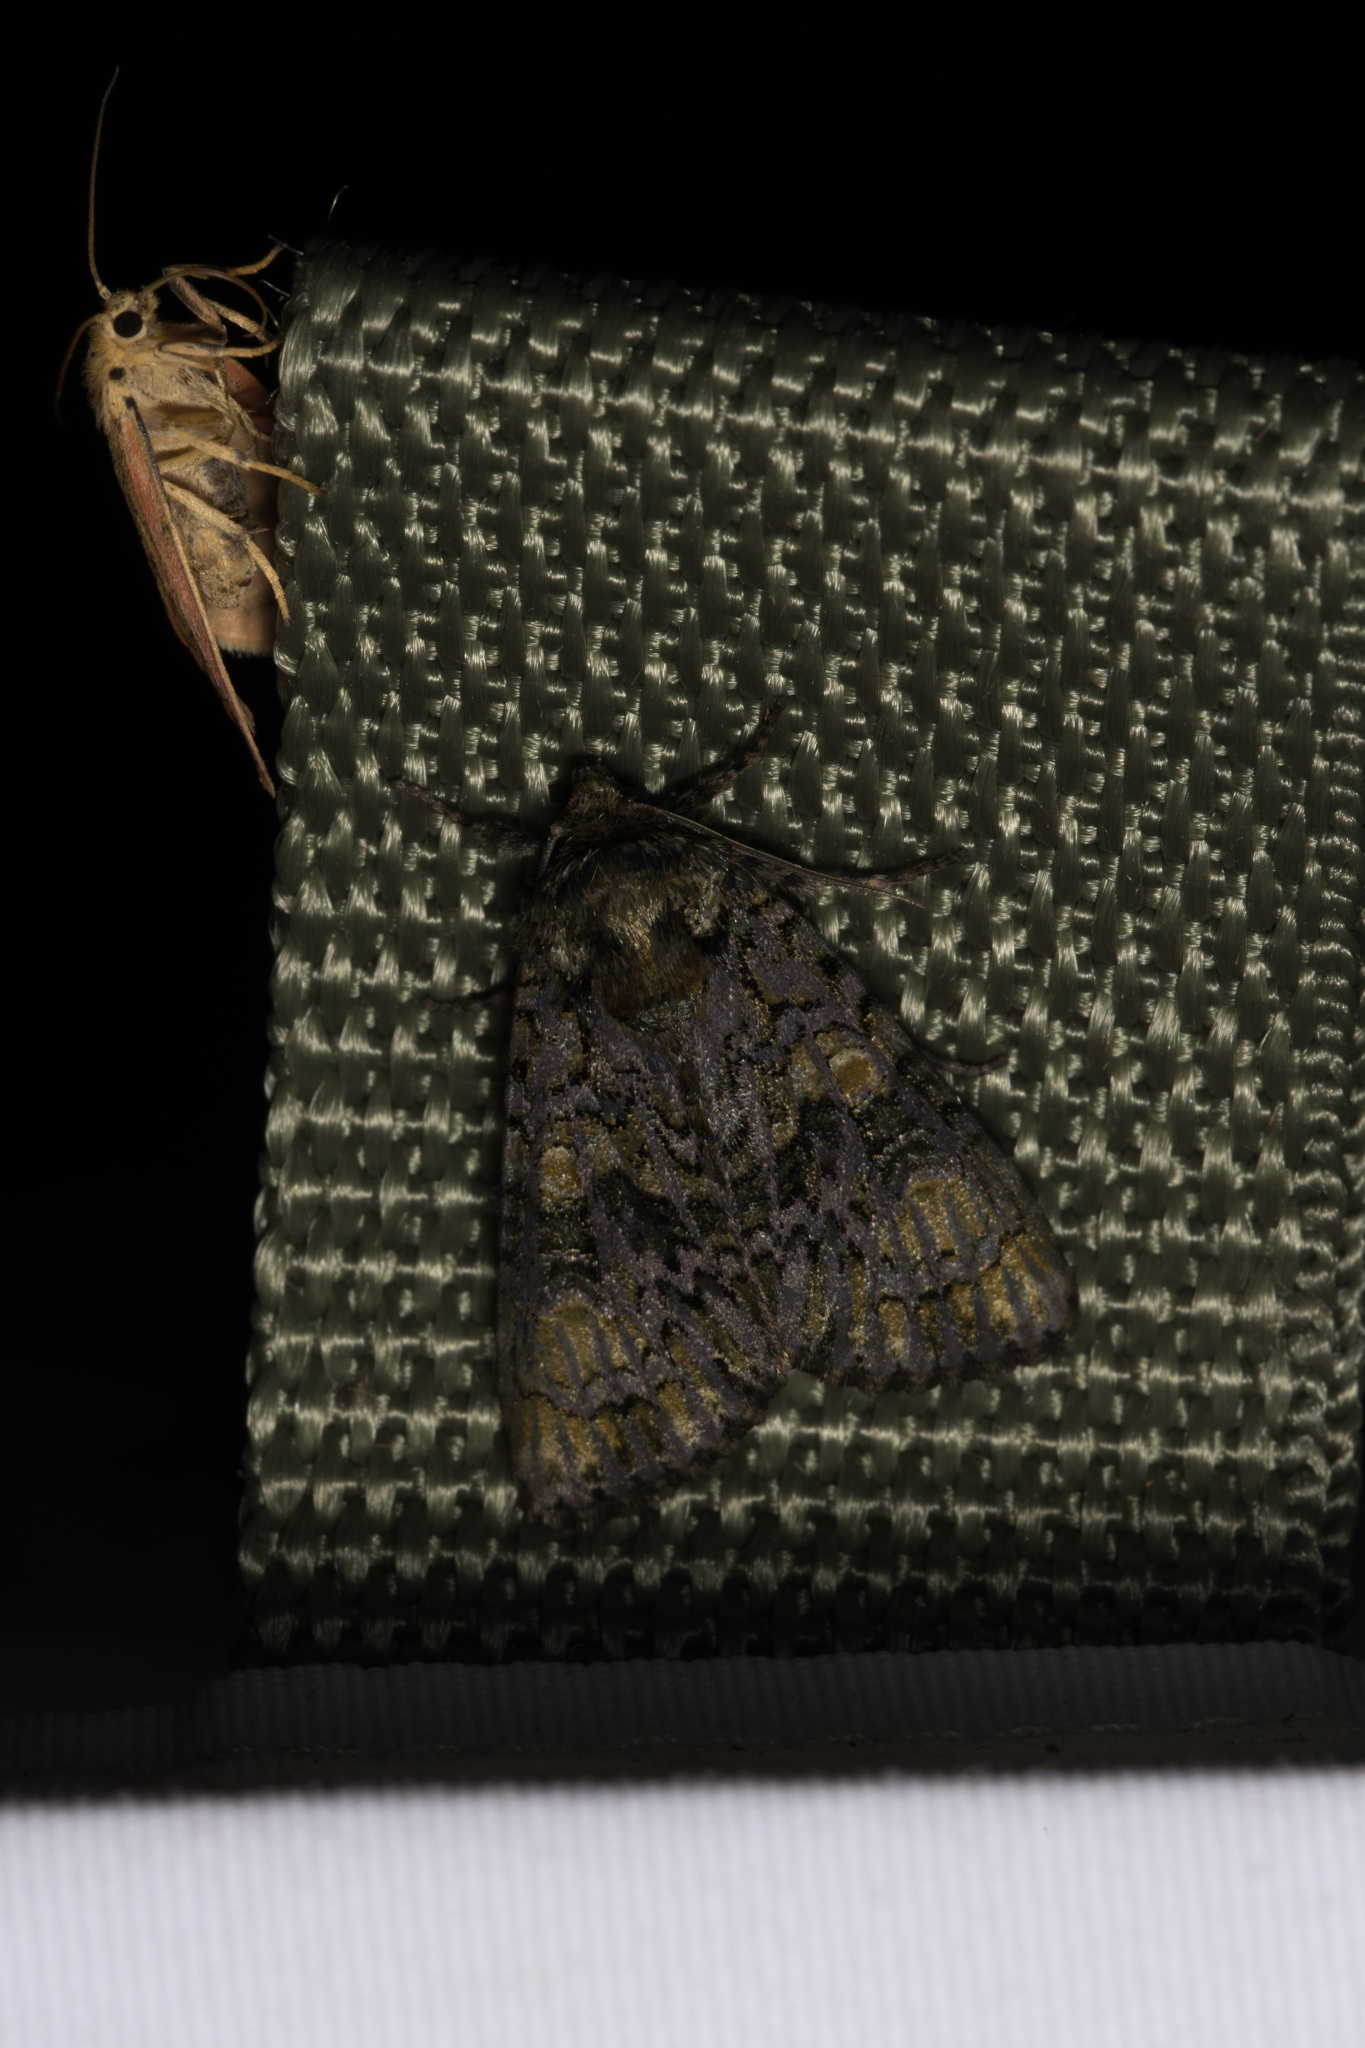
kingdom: Animalia
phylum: Arthropoda
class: Insecta
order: Lepidoptera
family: Noctuidae
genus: Craniophora
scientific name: Craniophora ligustri
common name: Coronet
